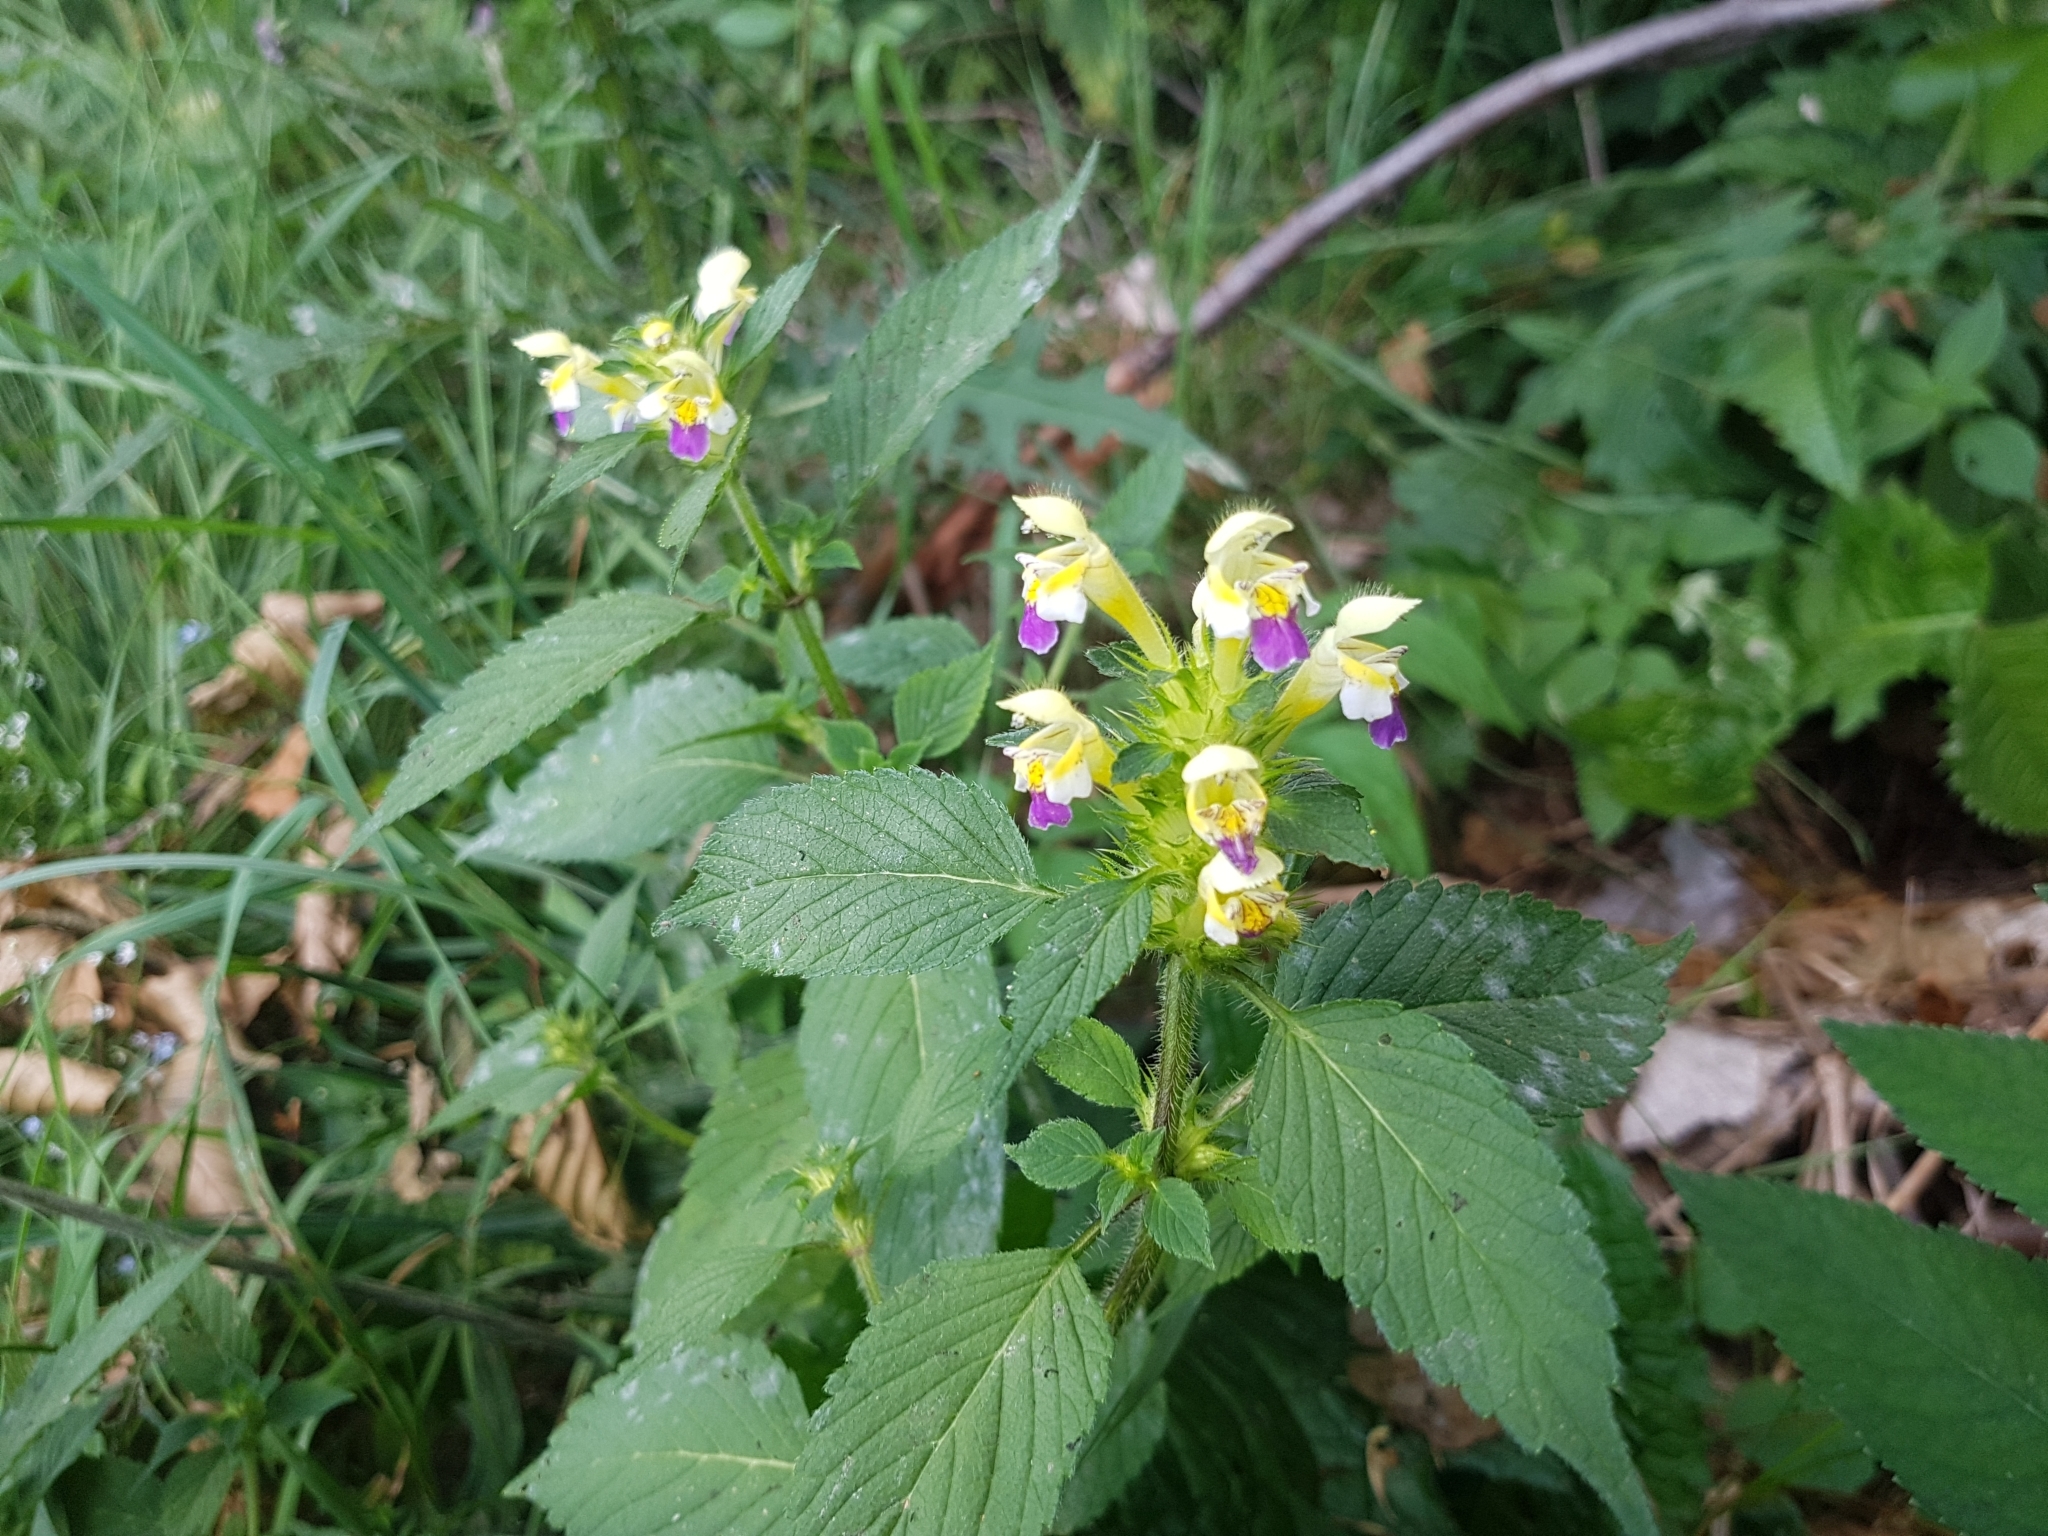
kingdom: Plantae
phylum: Tracheophyta
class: Magnoliopsida
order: Lamiales
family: Lamiaceae
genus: Galeopsis
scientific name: Galeopsis speciosa
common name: Large-flowered hemp-nettle
